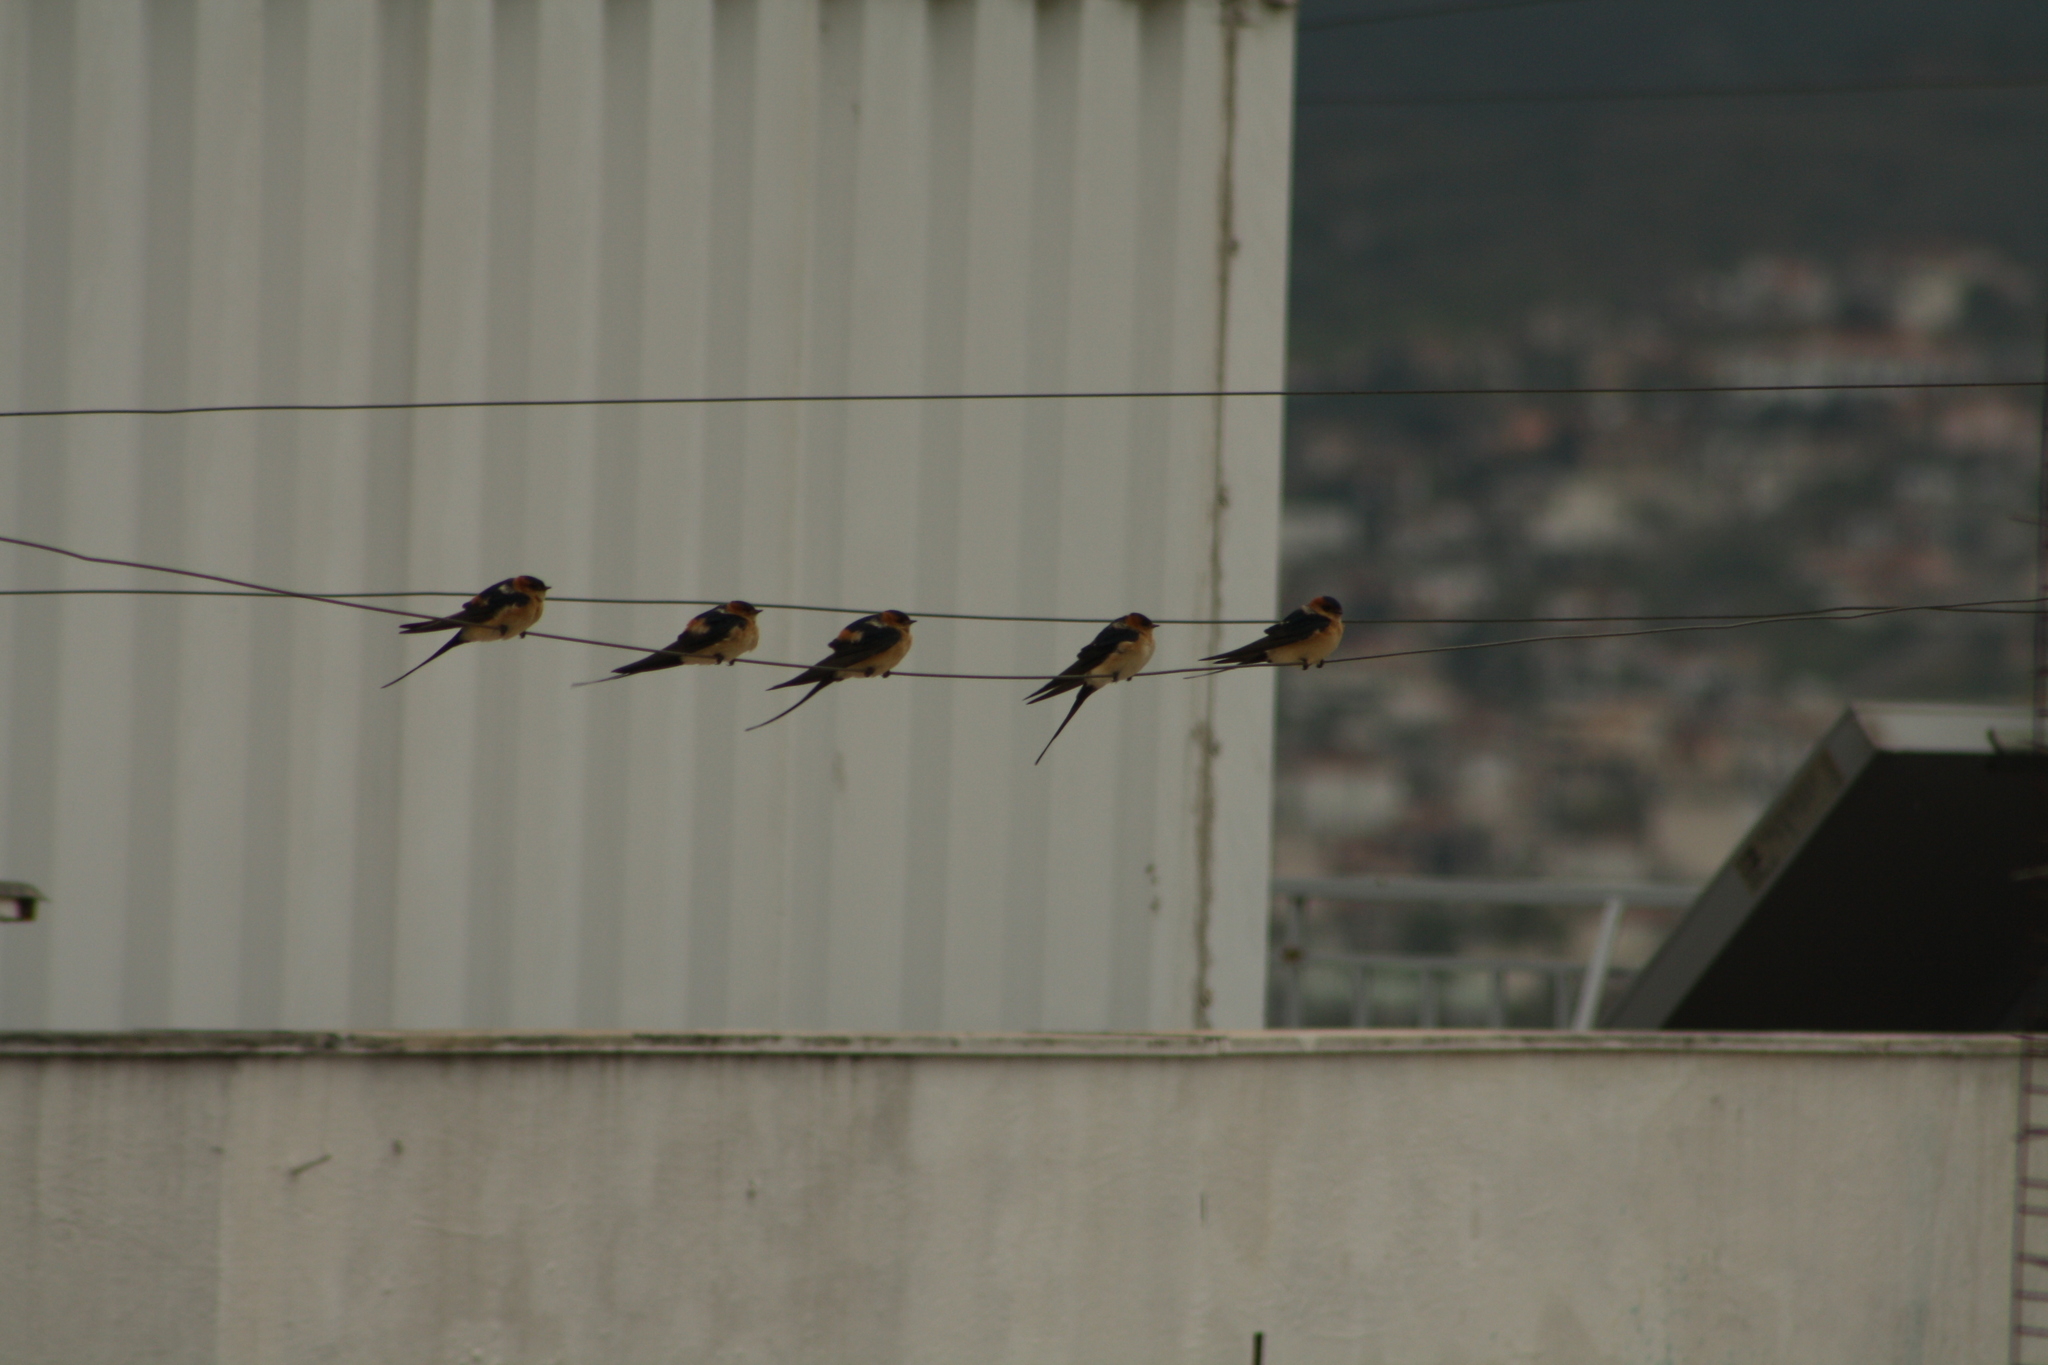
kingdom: Animalia
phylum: Chordata
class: Aves
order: Passeriformes
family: Hirundinidae
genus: Cecropis
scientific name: Cecropis daurica
